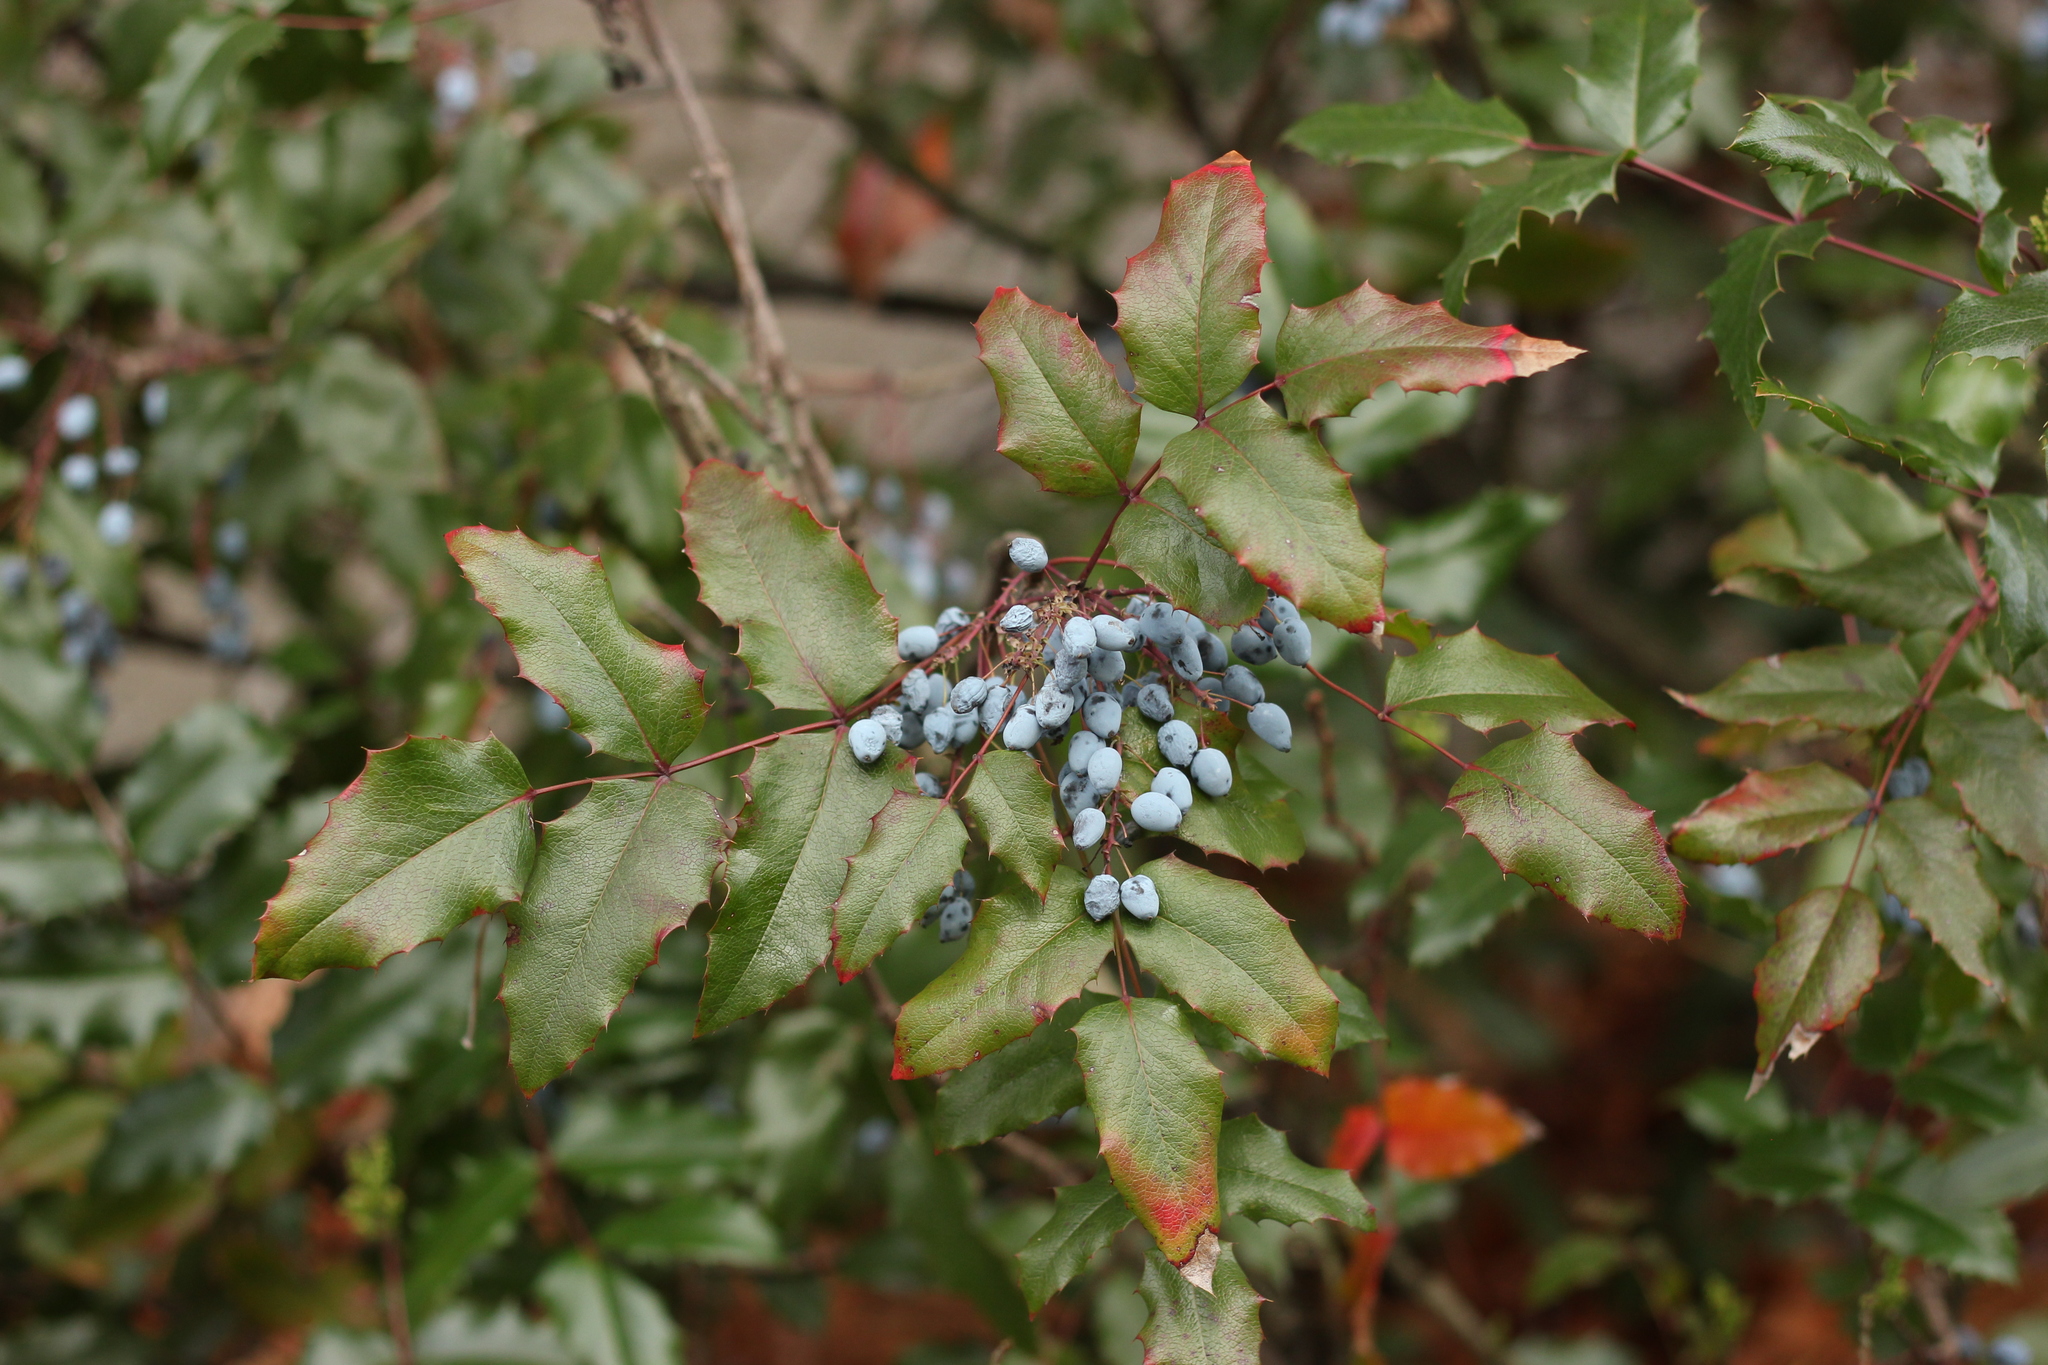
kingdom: Plantae
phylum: Tracheophyta
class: Magnoliopsida
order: Ranunculales
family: Berberidaceae
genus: Mahonia
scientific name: Mahonia aquifolium
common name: Oregon-grape
